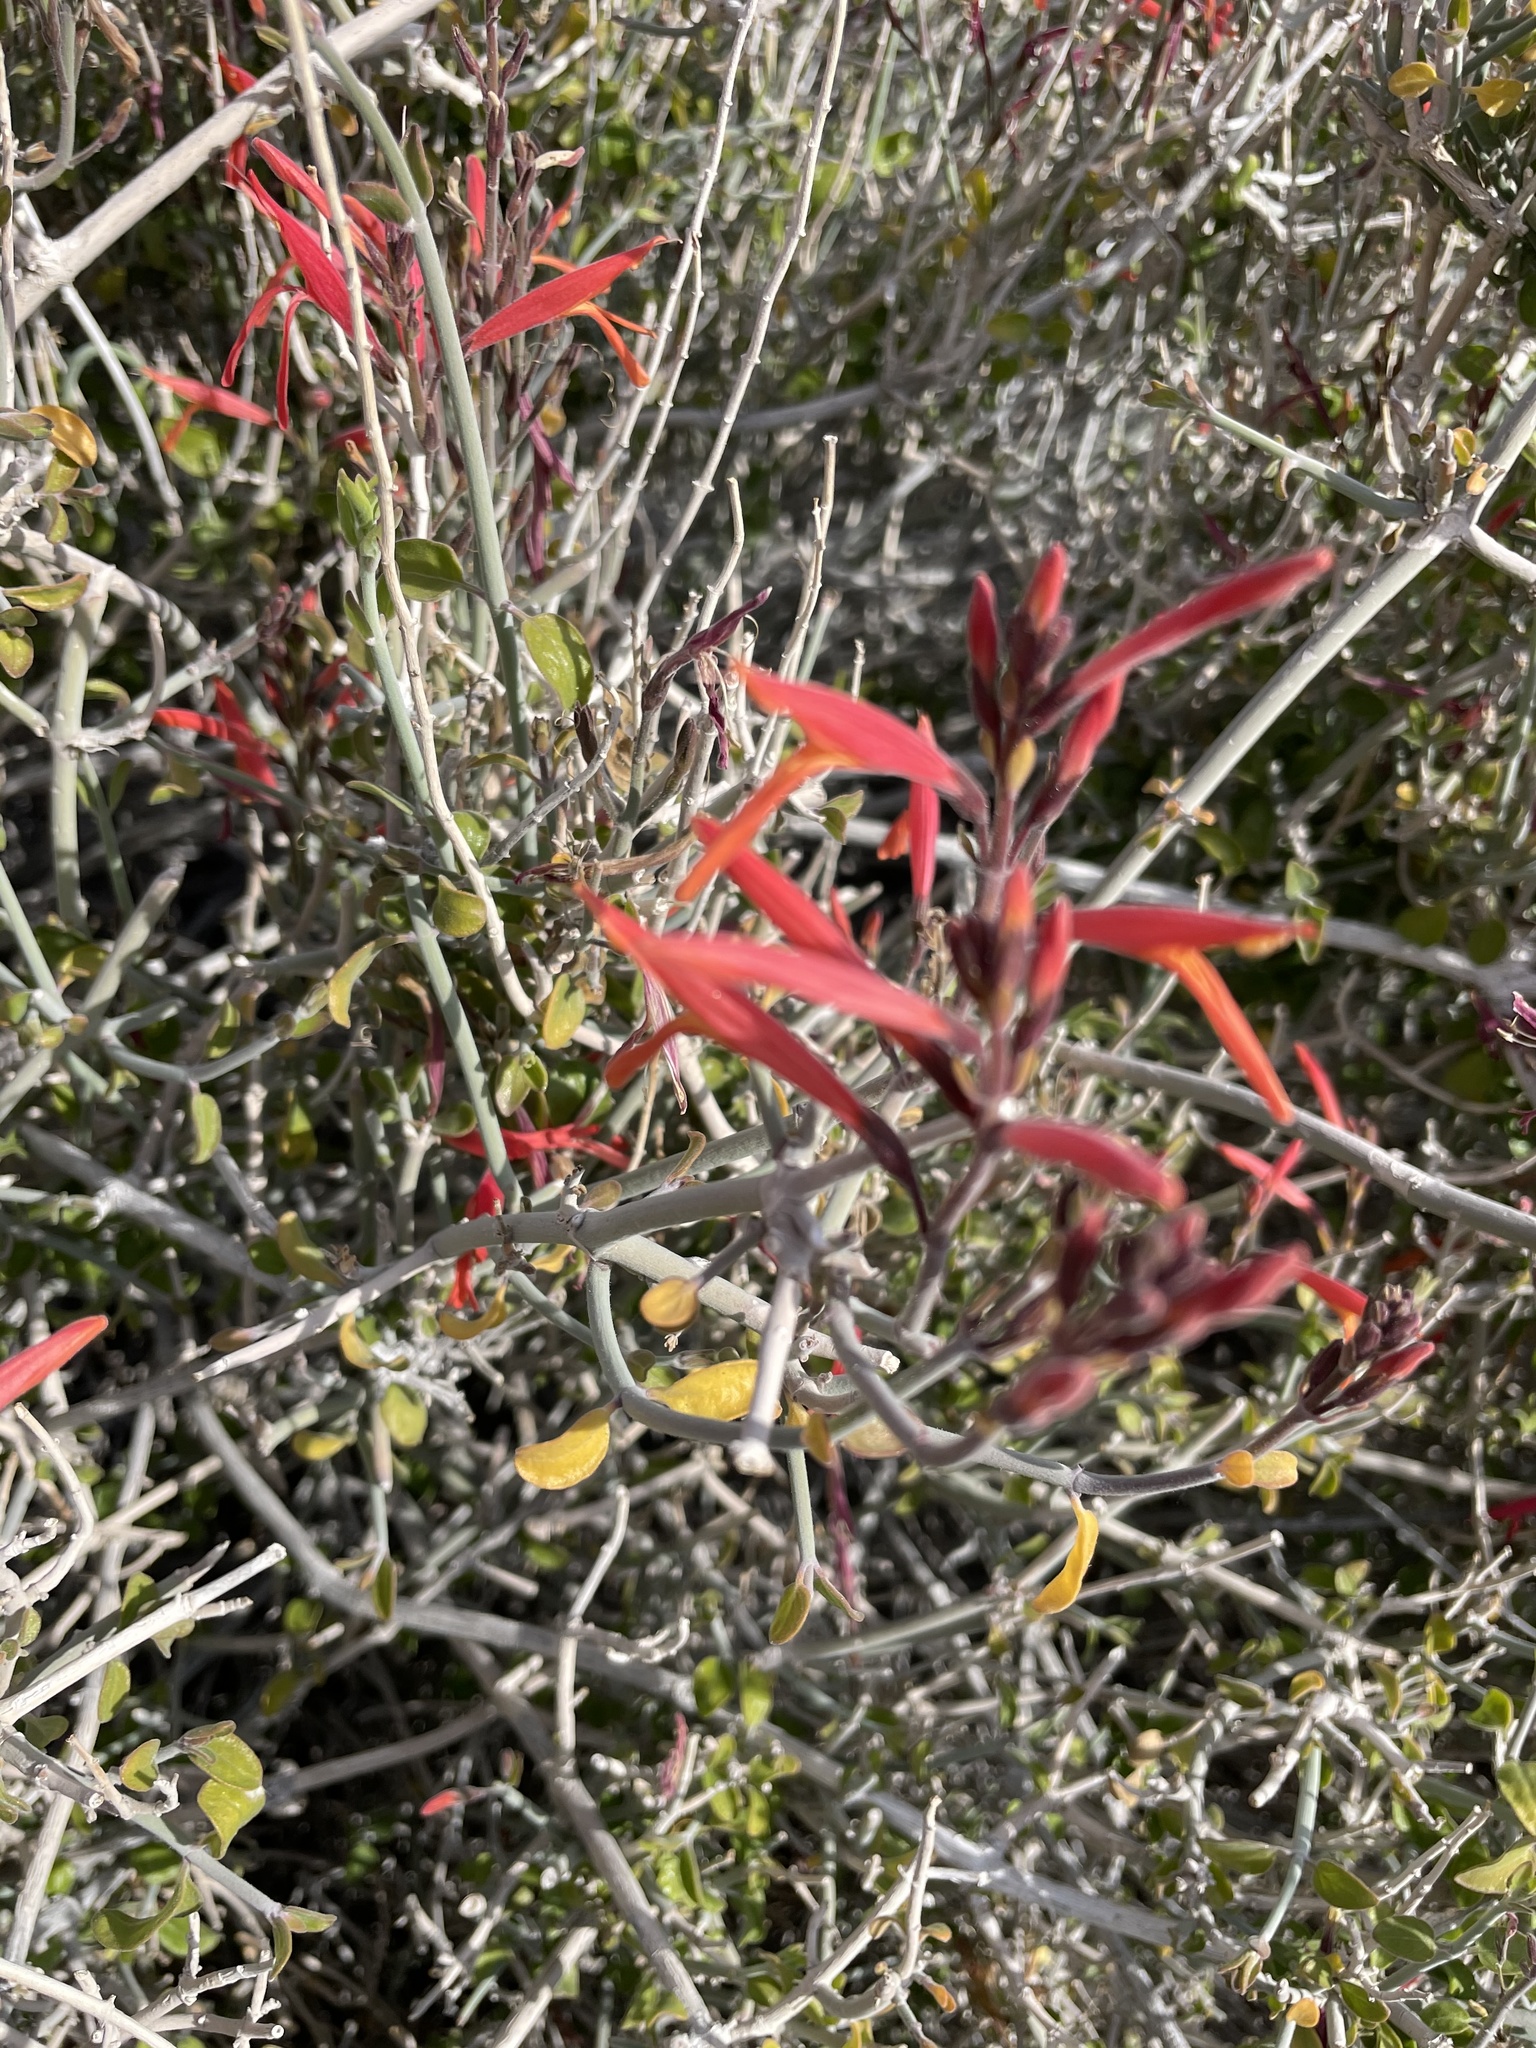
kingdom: Plantae
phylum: Tracheophyta
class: Magnoliopsida
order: Lamiales
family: Acanthaceae
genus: Justicia
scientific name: Justicia californica
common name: Chuparosa-honeysuckle
